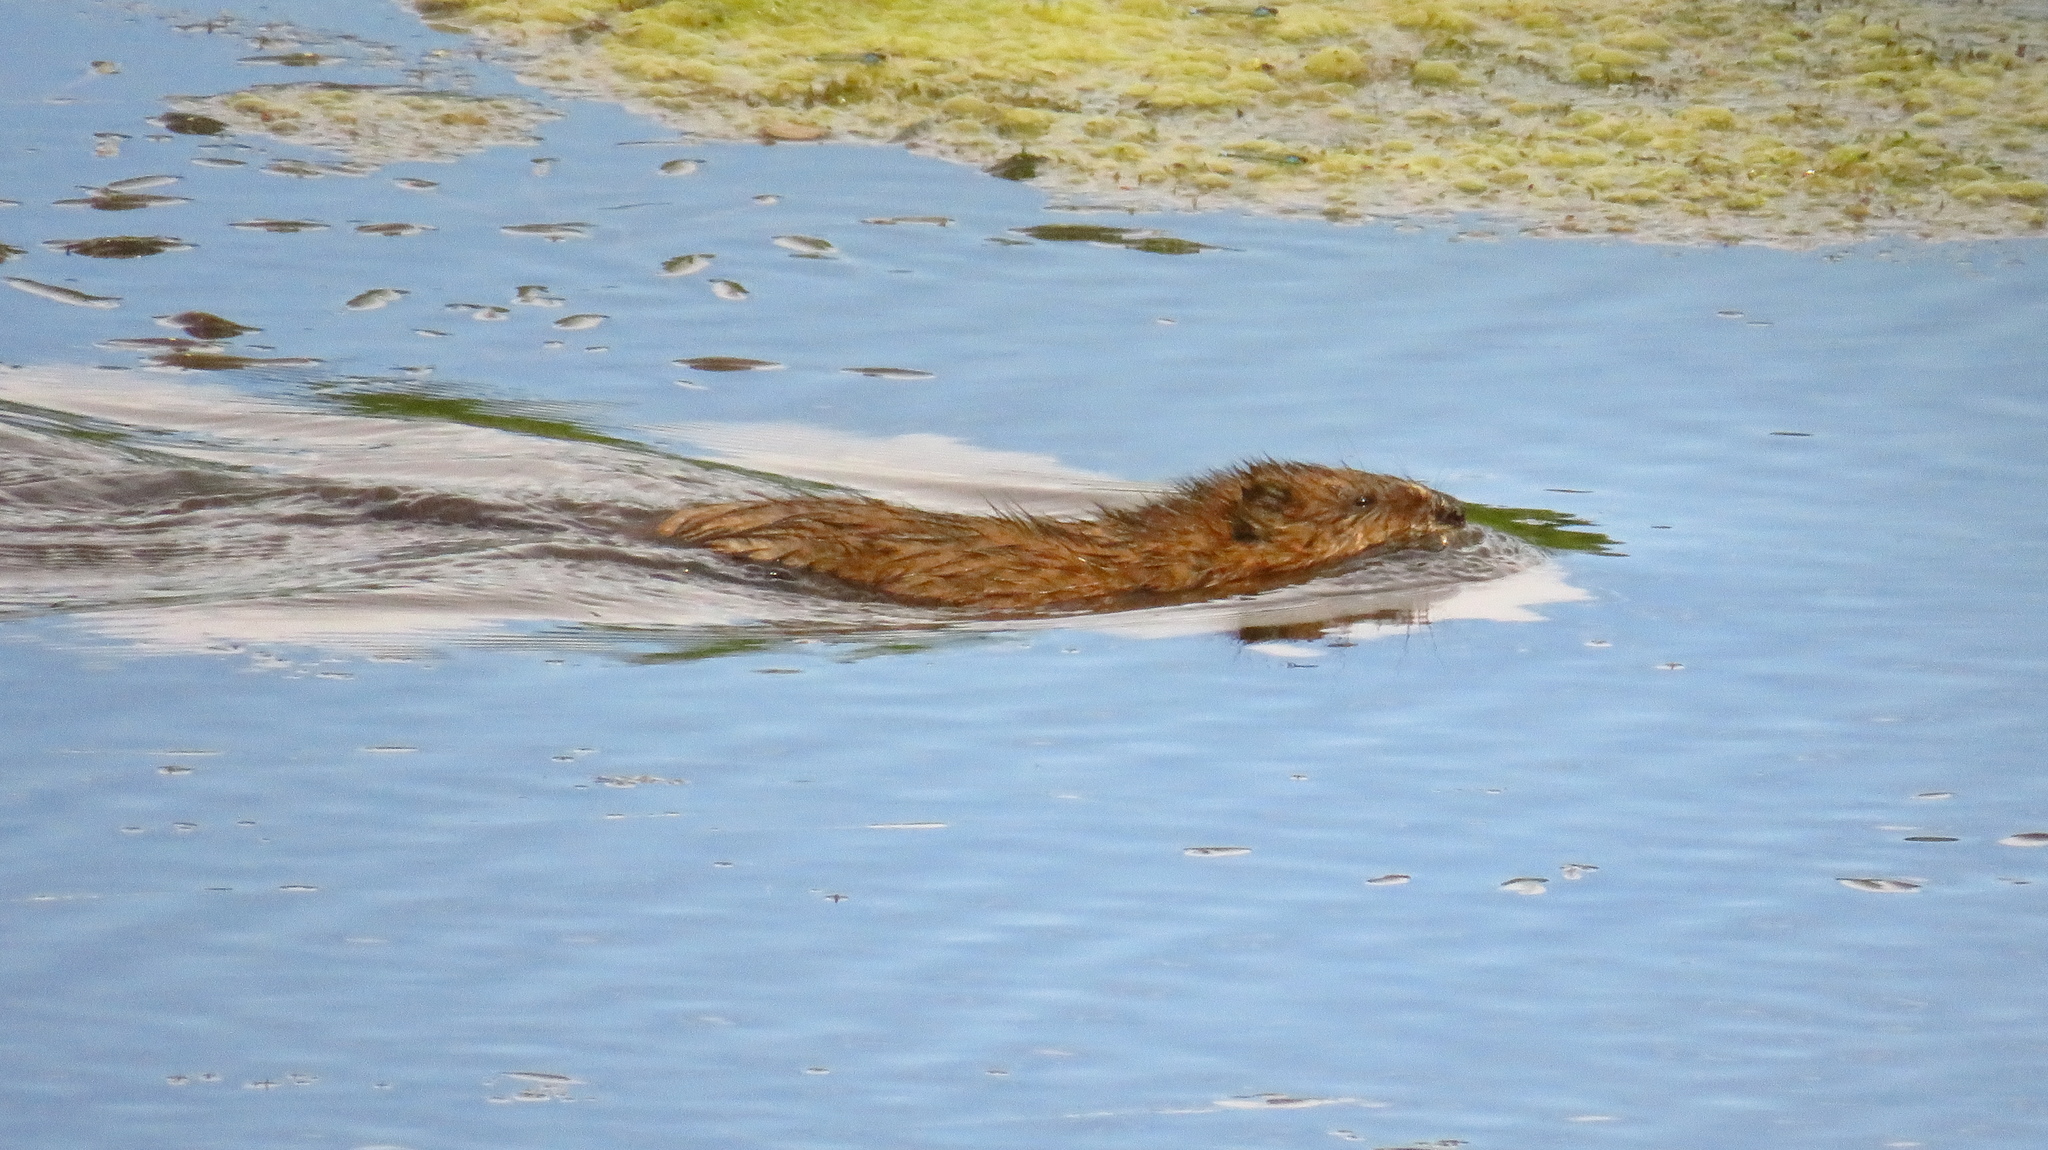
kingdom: Animalia
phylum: Chordata
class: Mammalia
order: Rodentia
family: Cricetidae
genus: Ondatra
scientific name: Ondatra zibethicus
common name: Muskrat
